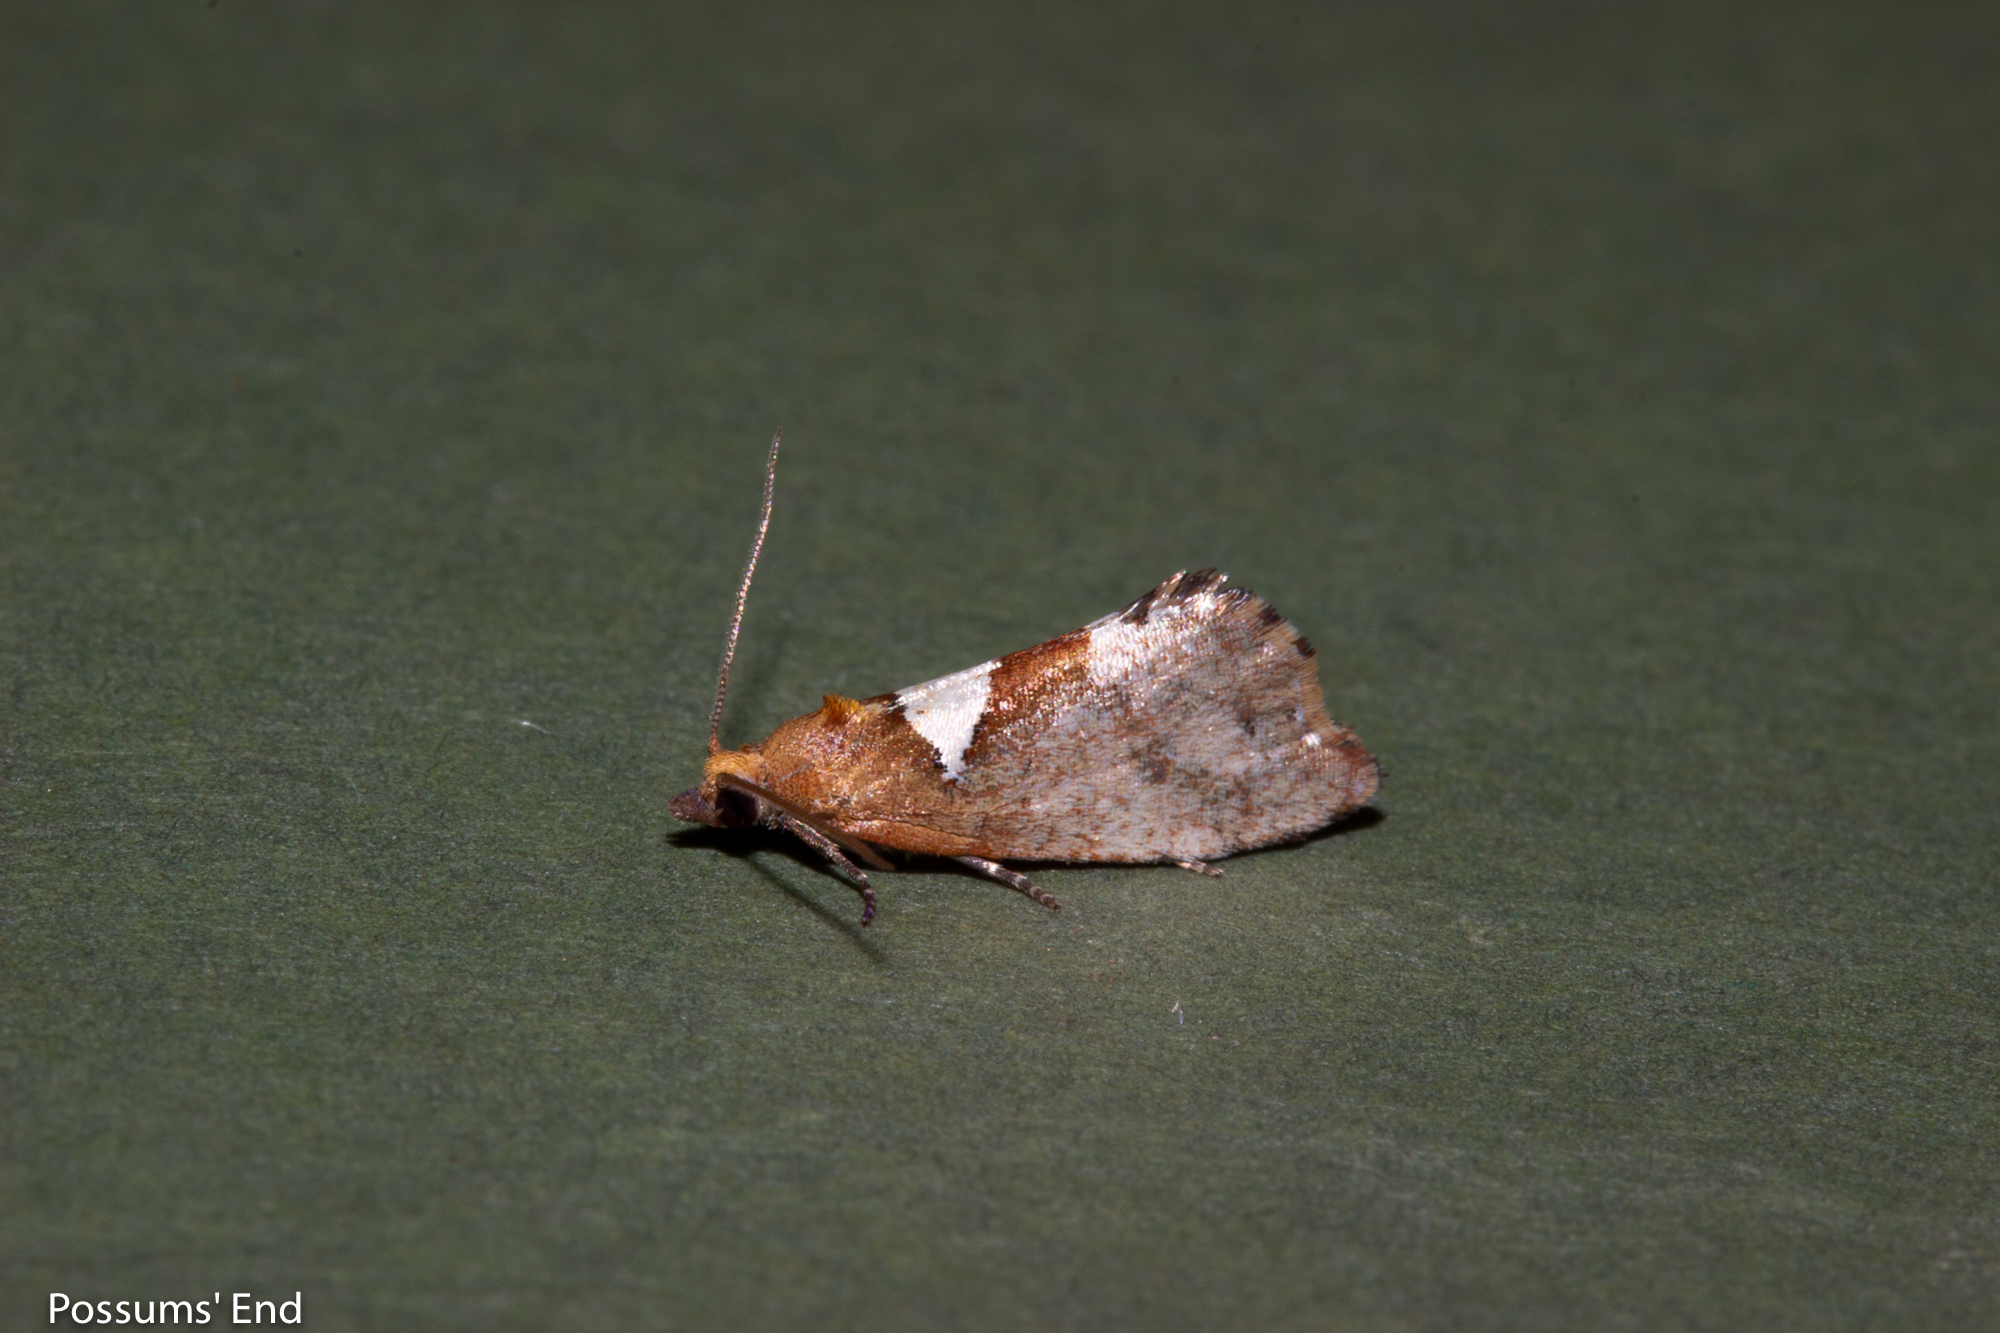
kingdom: Animalia
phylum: Arthropoda
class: Insecta
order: Lepidoptera
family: Tortricidae
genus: Pyrgotis
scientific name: Pyrgotis pyramidias
